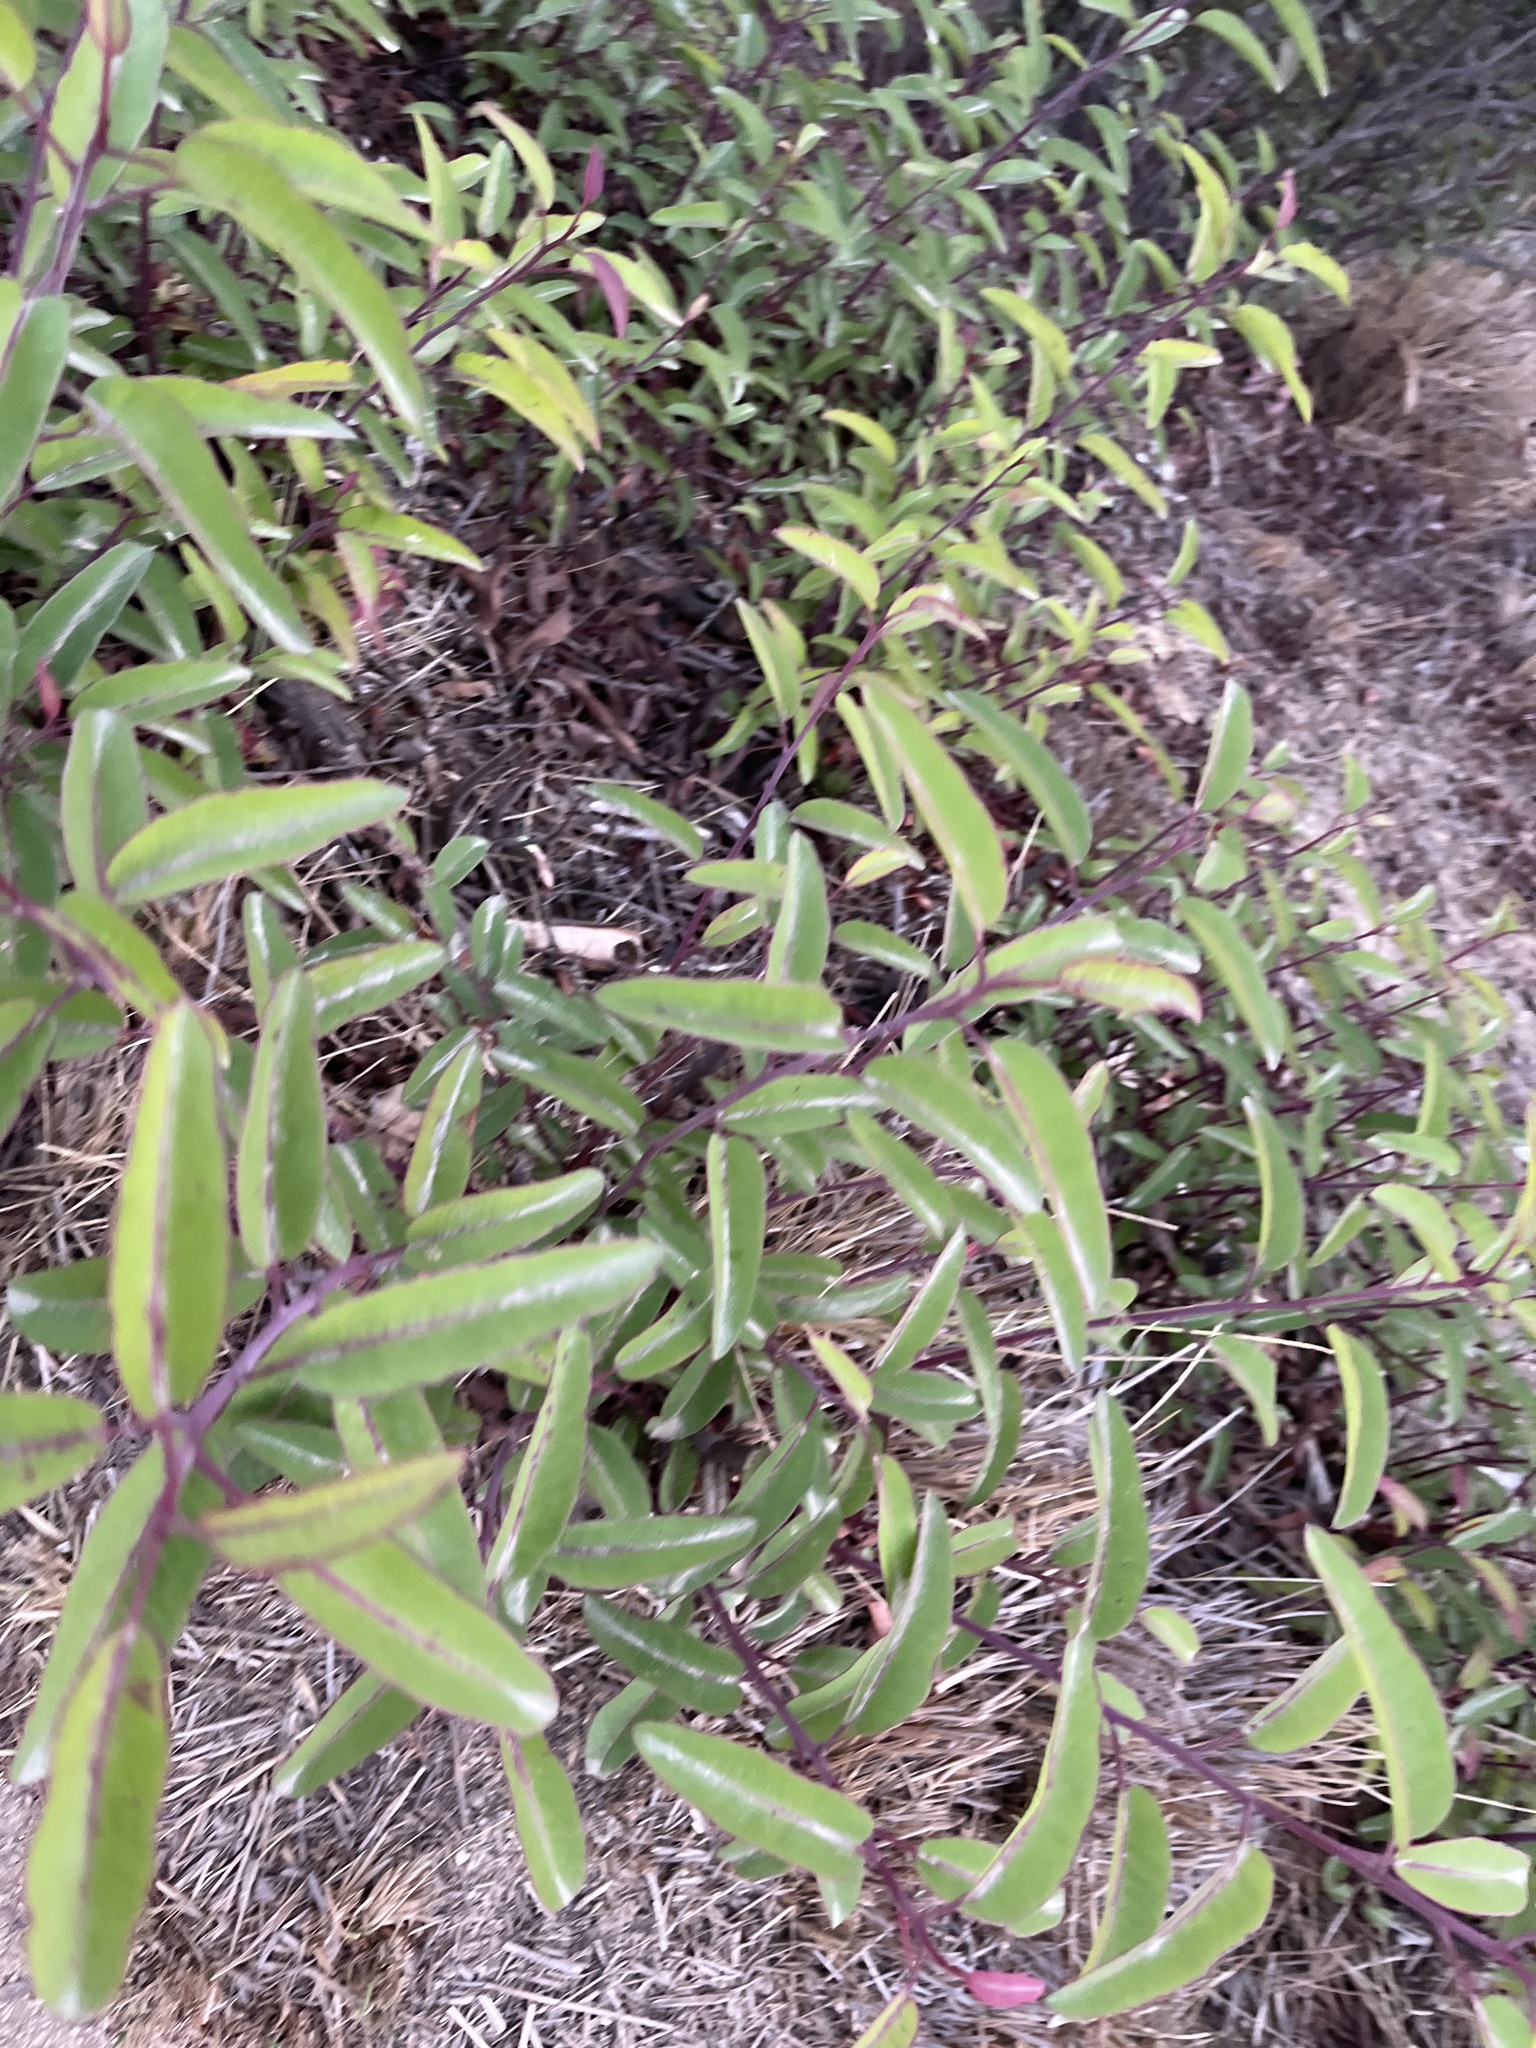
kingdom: Plantae
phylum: Tracheophyta
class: Magnoliopsida
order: Sapindales
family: Anacardiaceae
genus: Malosma
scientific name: Malosma laurina
